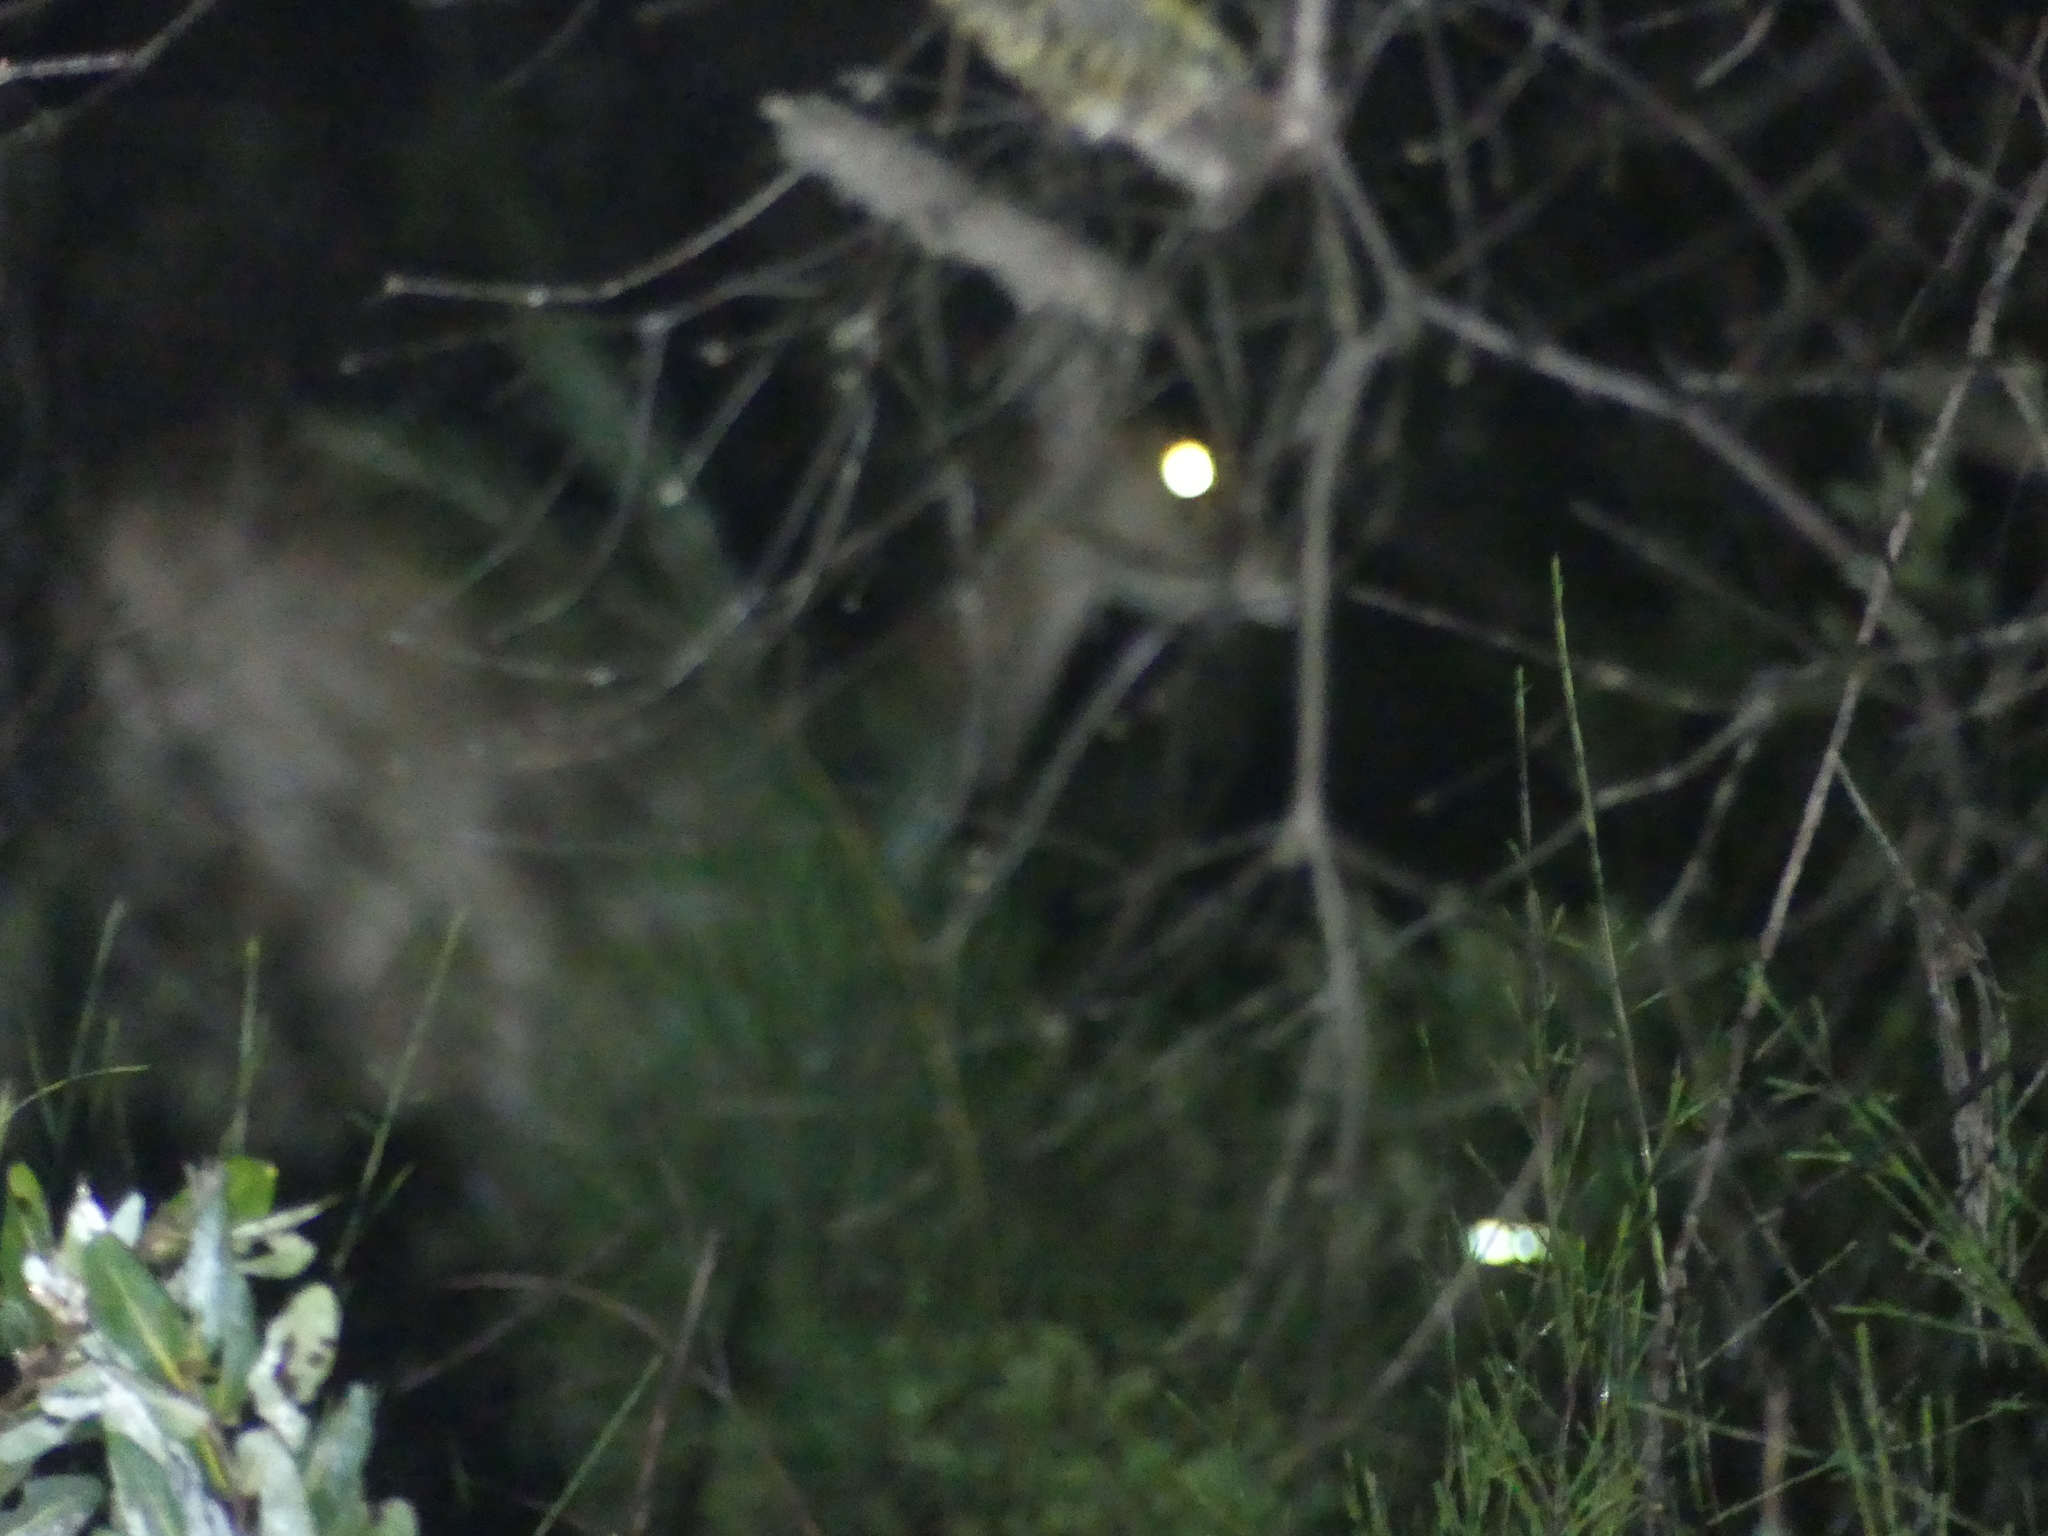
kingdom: Animalia
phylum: Chordata
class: Mammalia
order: Artiodactyla
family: Cervidae
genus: Rusa
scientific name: Rusa timorensis
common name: Javan rusa
